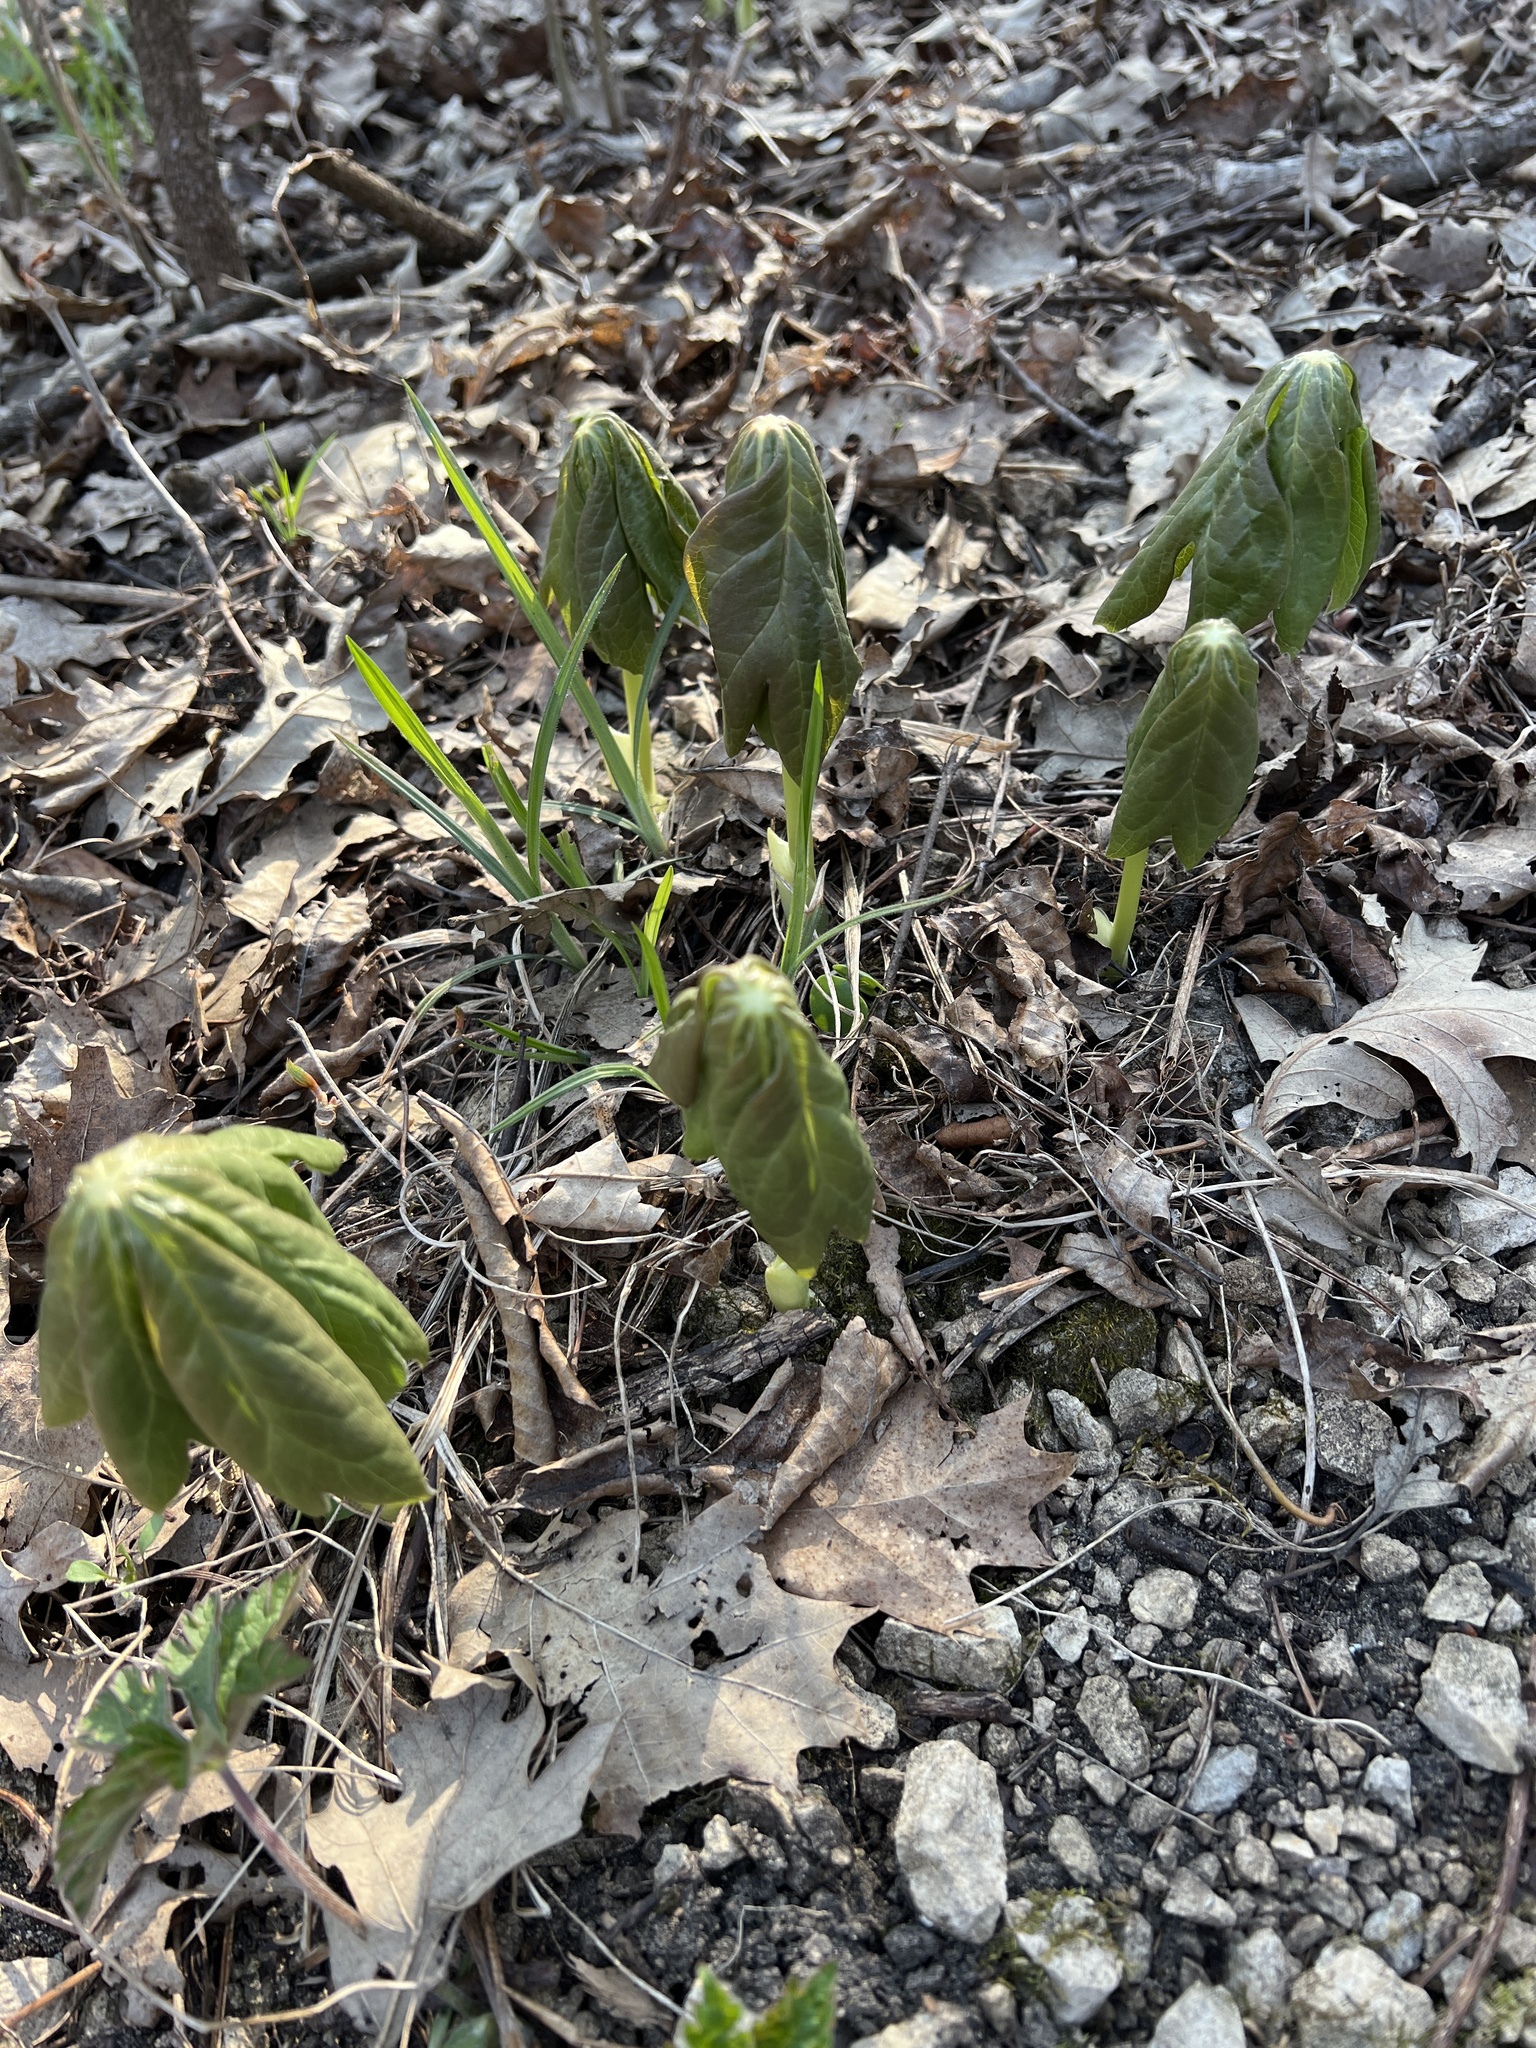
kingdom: Plantae
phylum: Tracheophyta
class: Magnoliopsida
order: Ranunculales
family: Berberidaceae
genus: Podophyllum
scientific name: Podophyllum peltatum
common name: Wild mandrake
